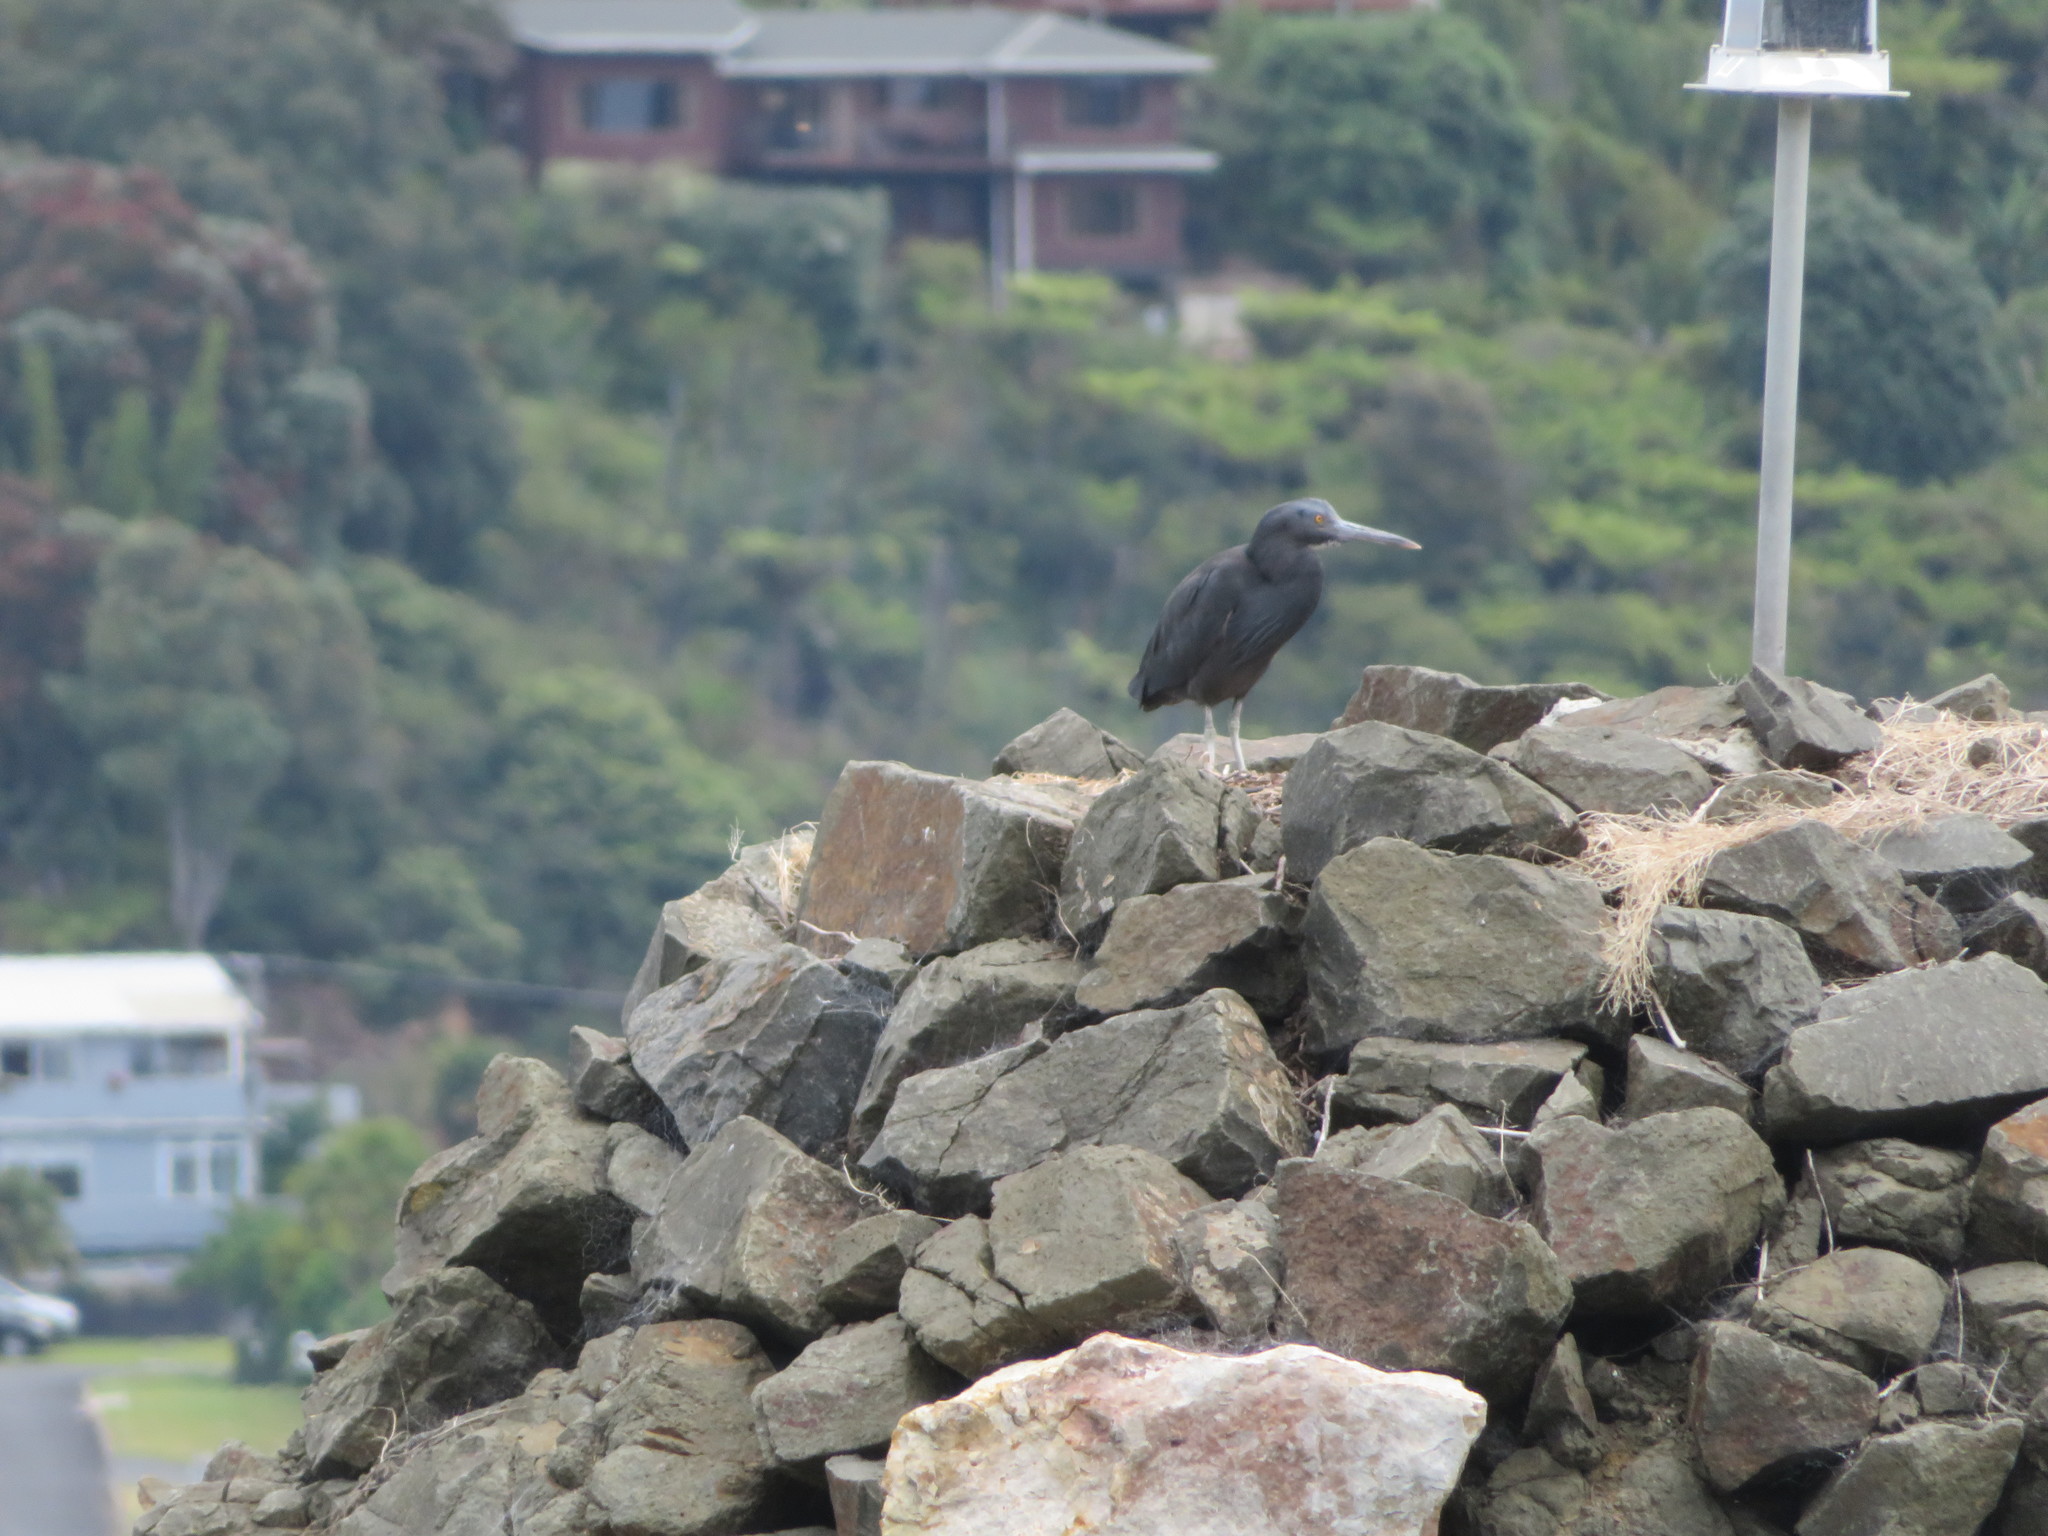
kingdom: Animalia
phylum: Chordata
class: Aves
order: Pelecaniformes
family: Ardeidae
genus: Egretta
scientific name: Egretta sacra
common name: Pacific reef heron
